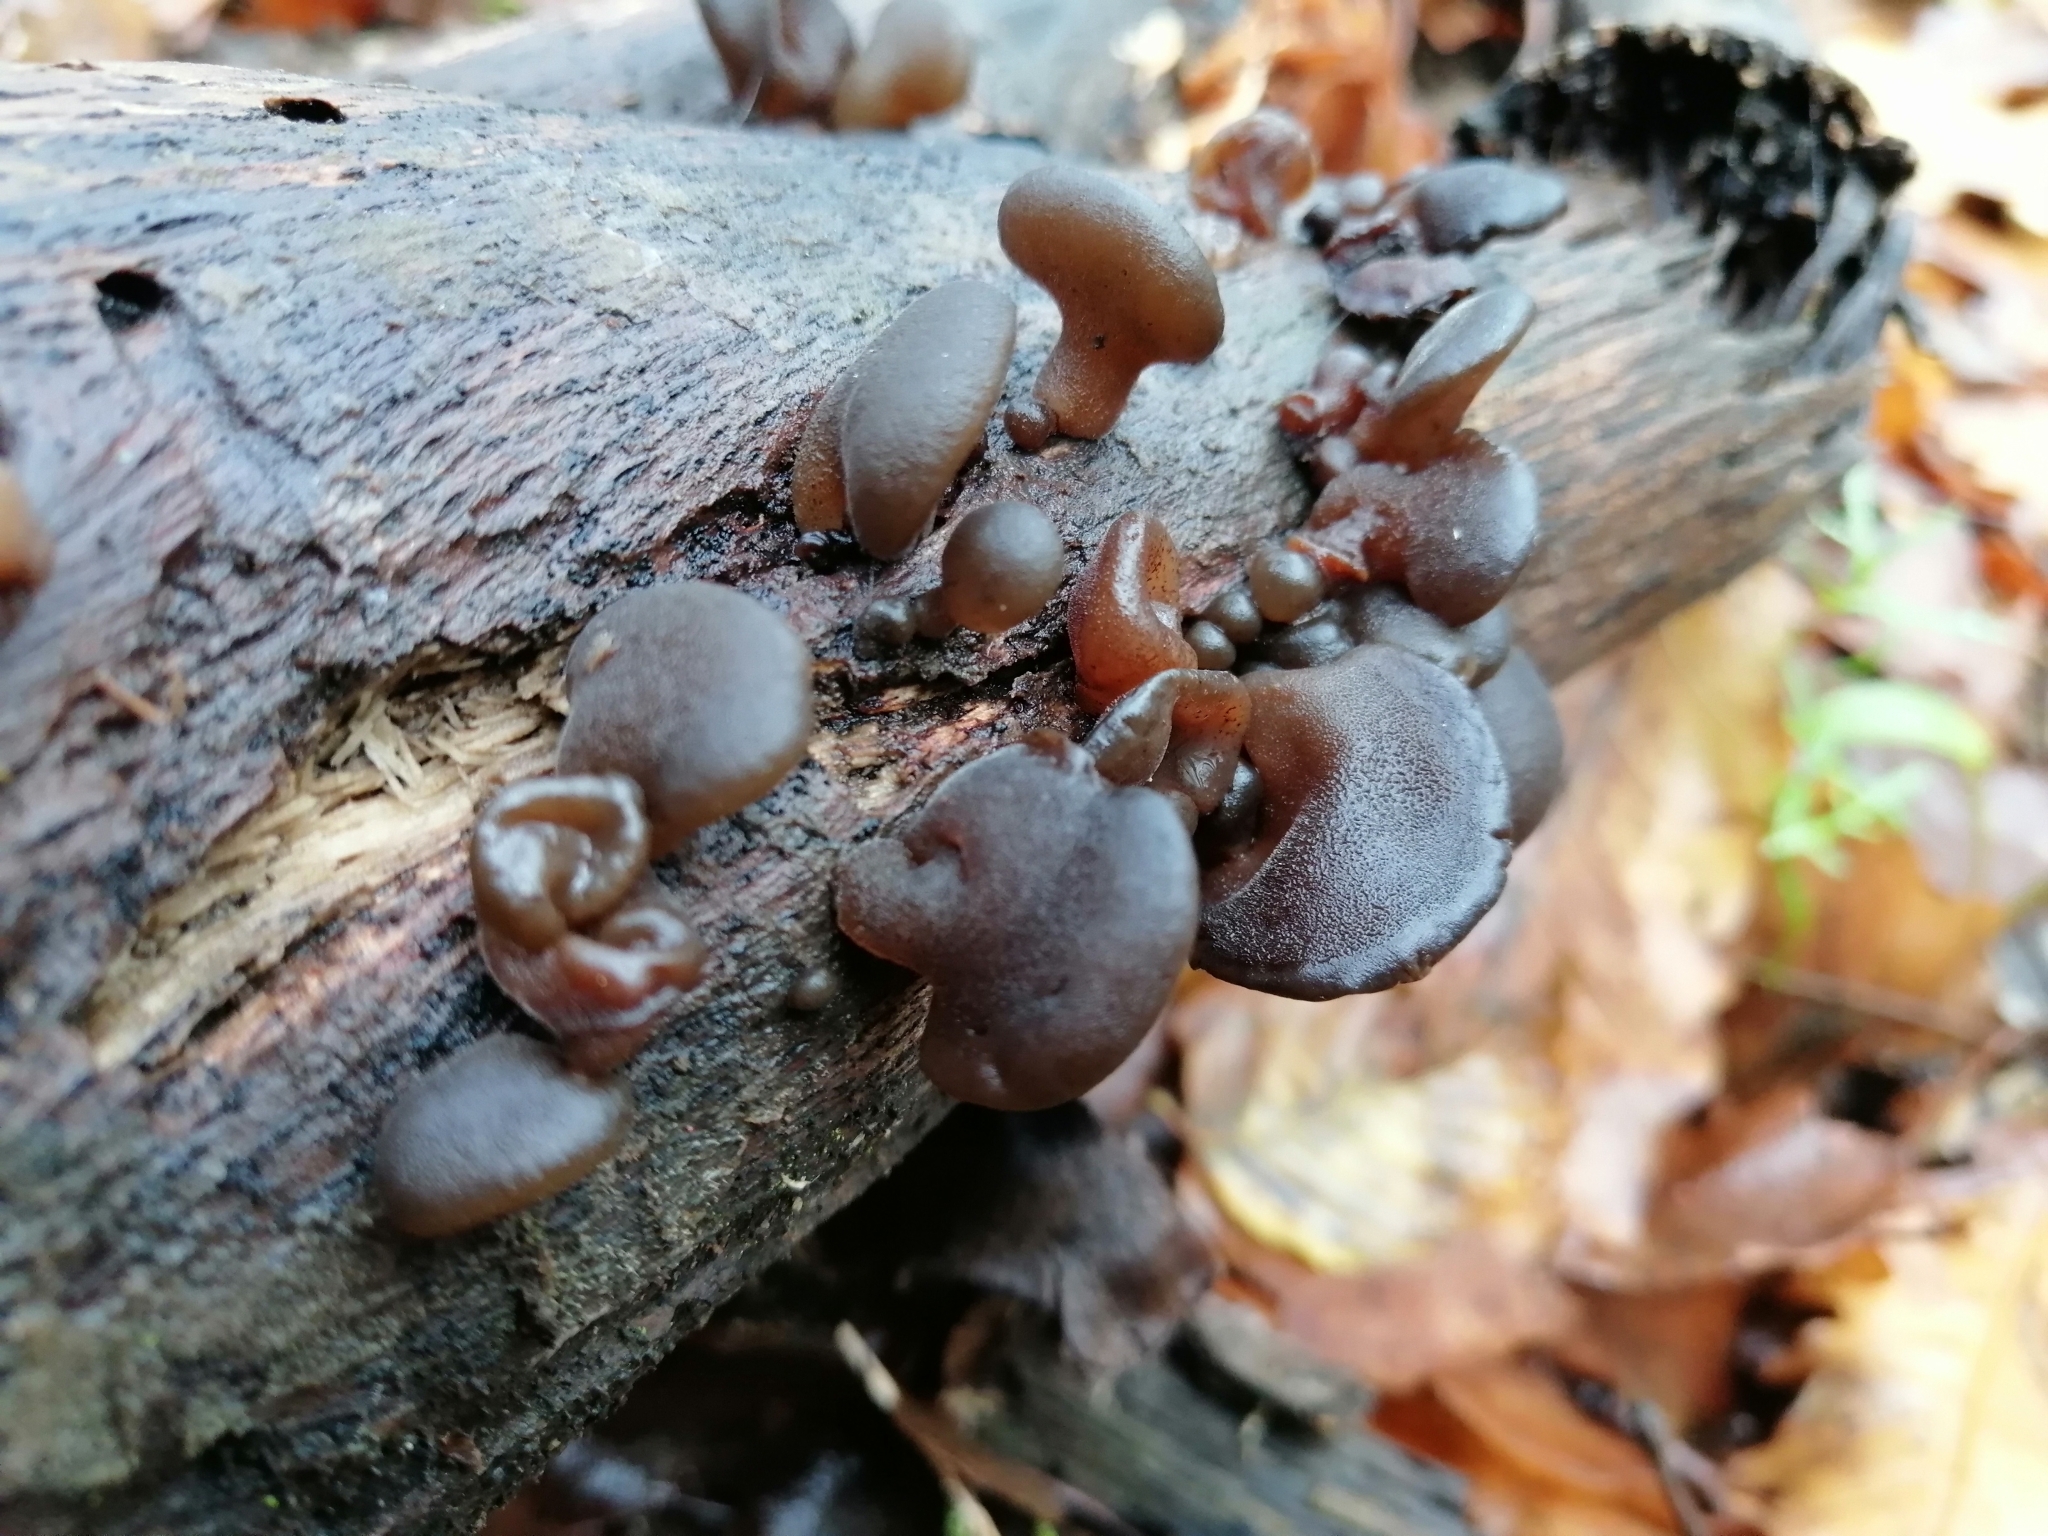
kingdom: Fungi
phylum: Basidiomycota
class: Agaricomycetes
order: Auriculariales
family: Auriculariaceae
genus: Auricularia
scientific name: Auricularia auricula-judae
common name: Jelly ear
